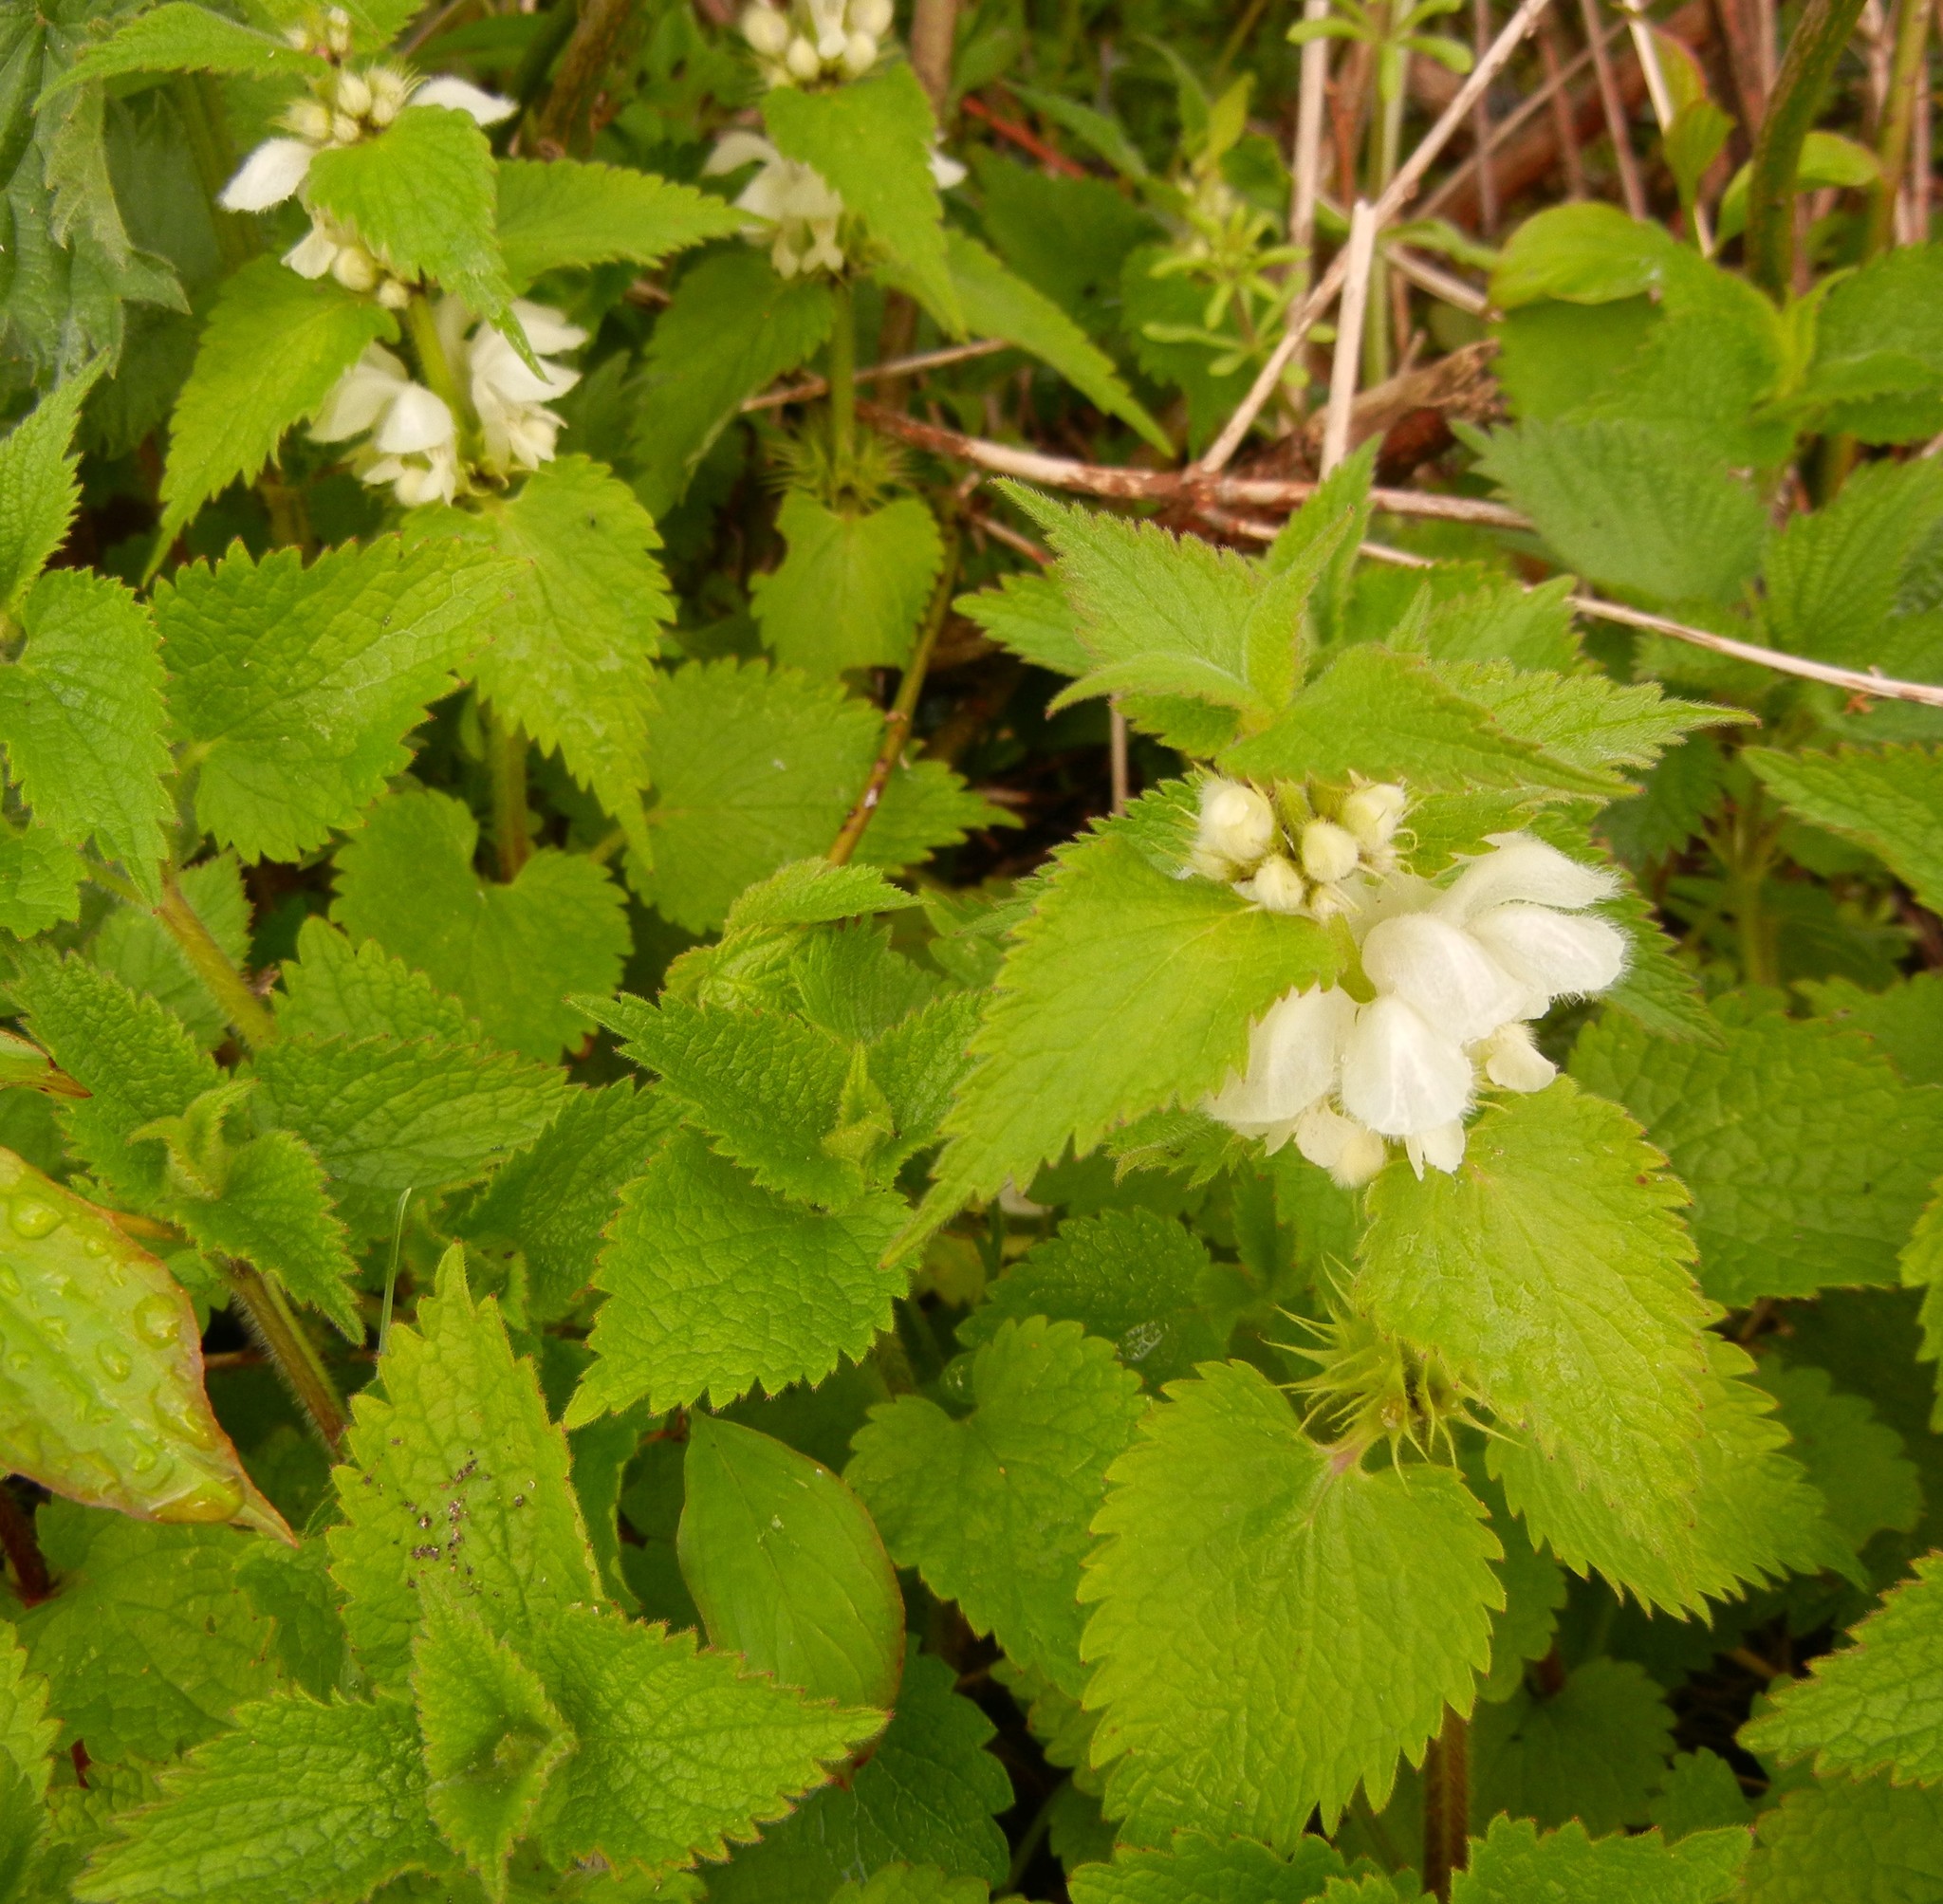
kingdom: Plantae
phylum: Tracheophyta
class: Magnoliopsida
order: Lamiales
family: Lamiaceae
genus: Lamium
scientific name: Lamium album
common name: White dead-nettle
